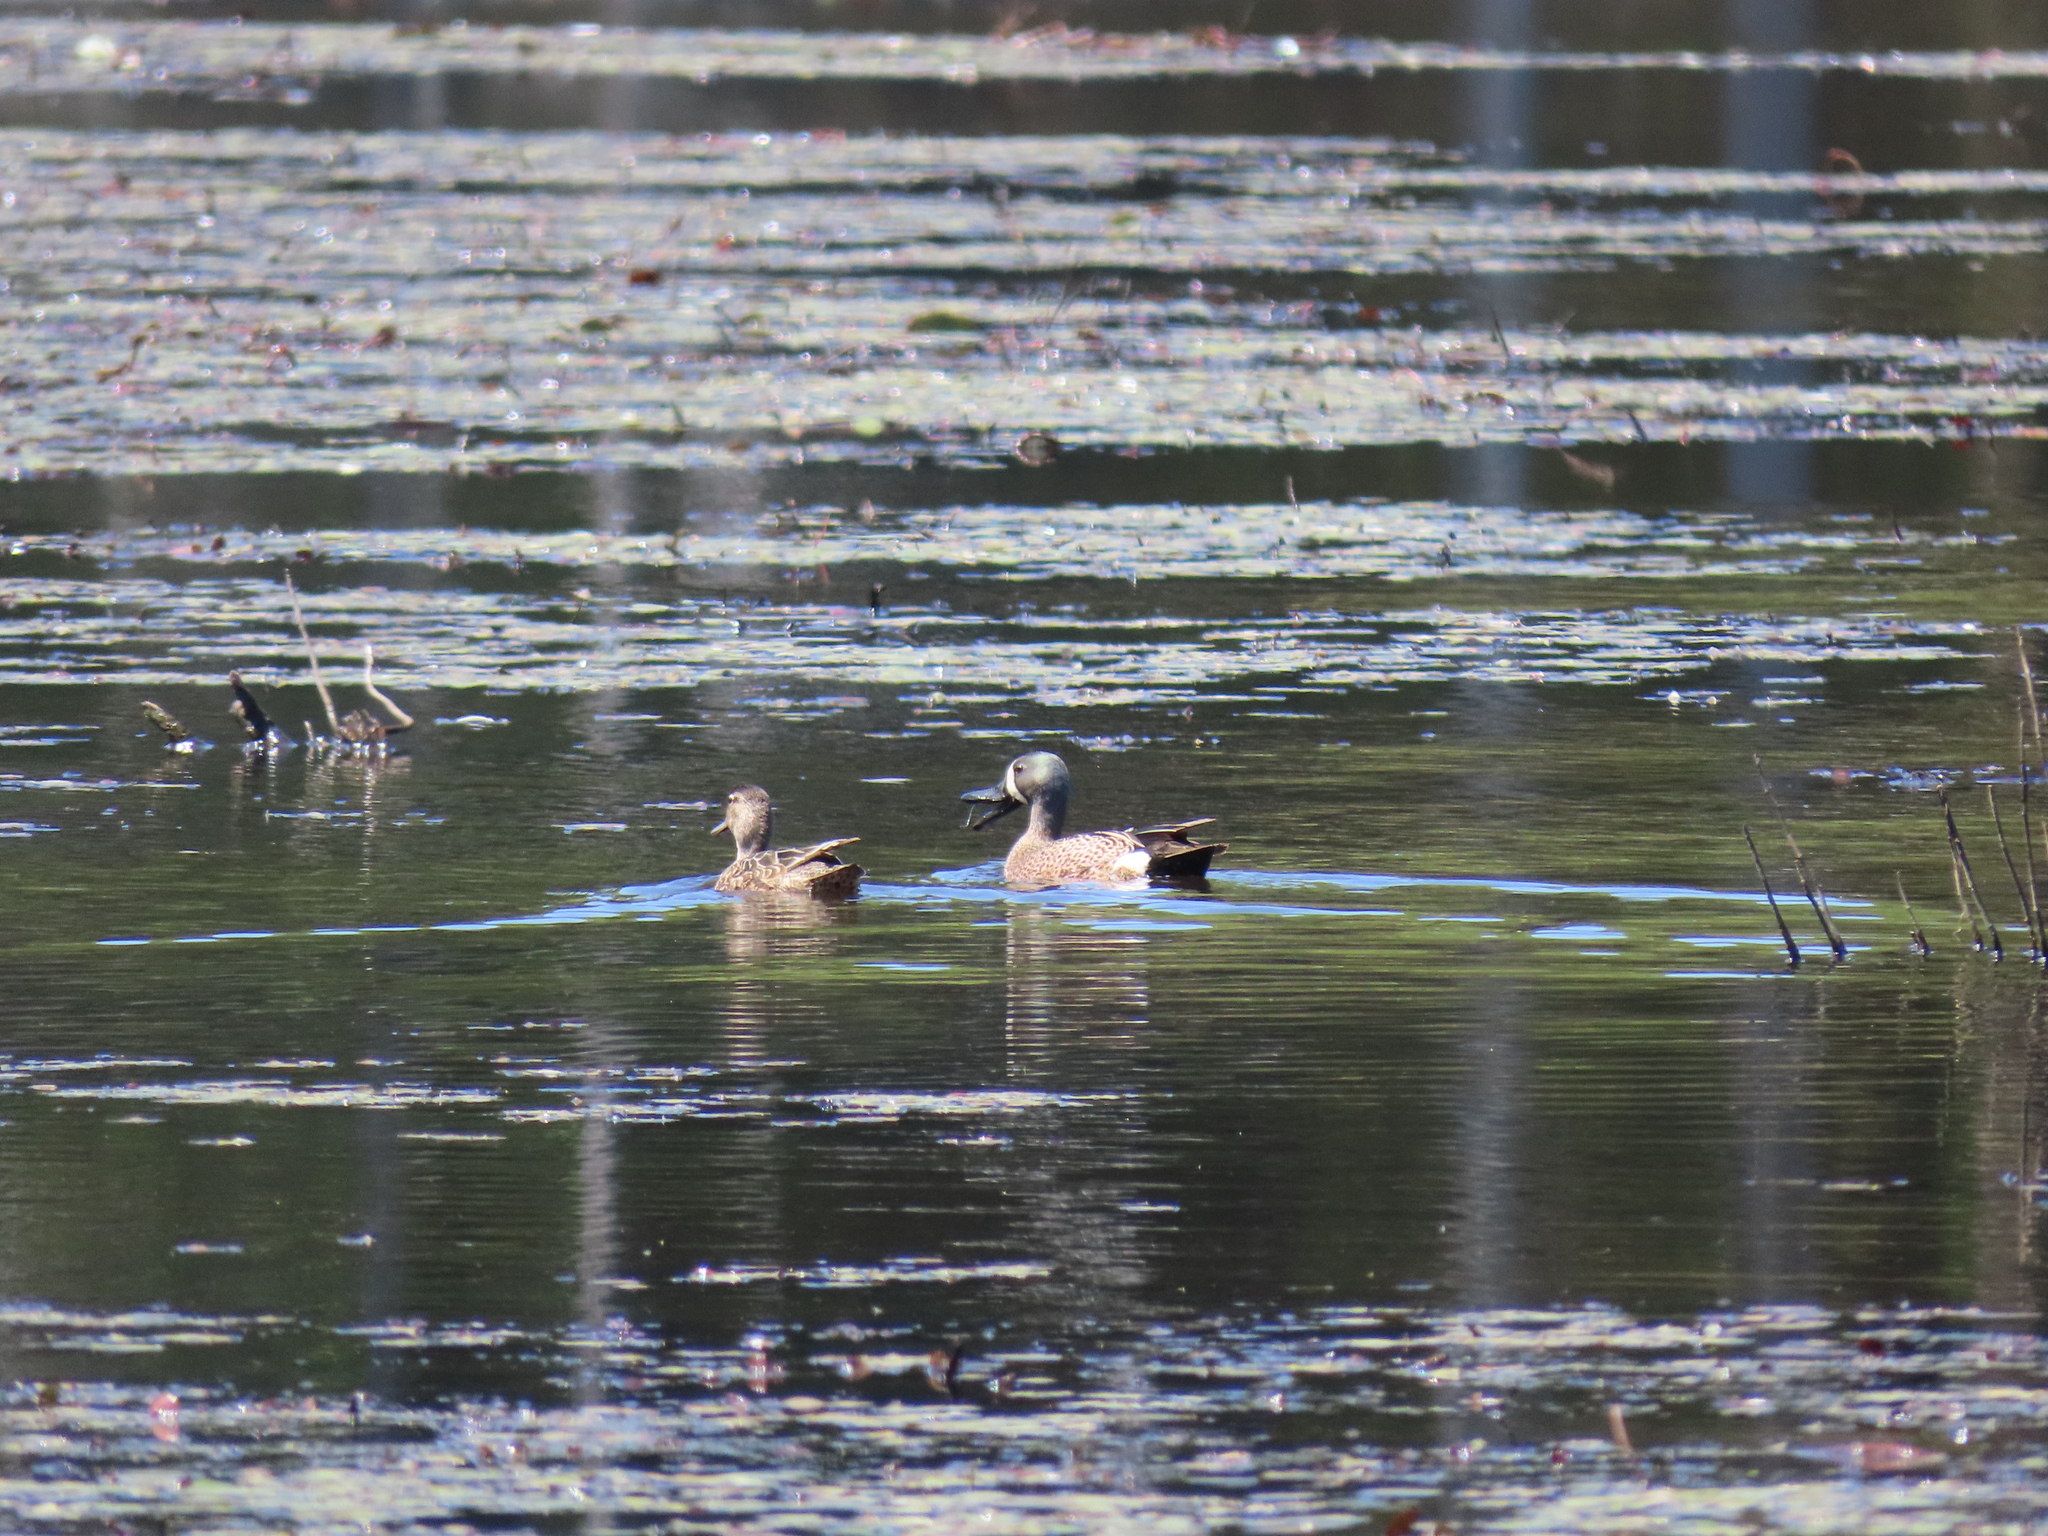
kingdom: Animalia
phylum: Chordata
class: Aves
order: Anseriformes
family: Anatidae
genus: Spatula
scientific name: Spatula discors
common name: Blue-winged teal
